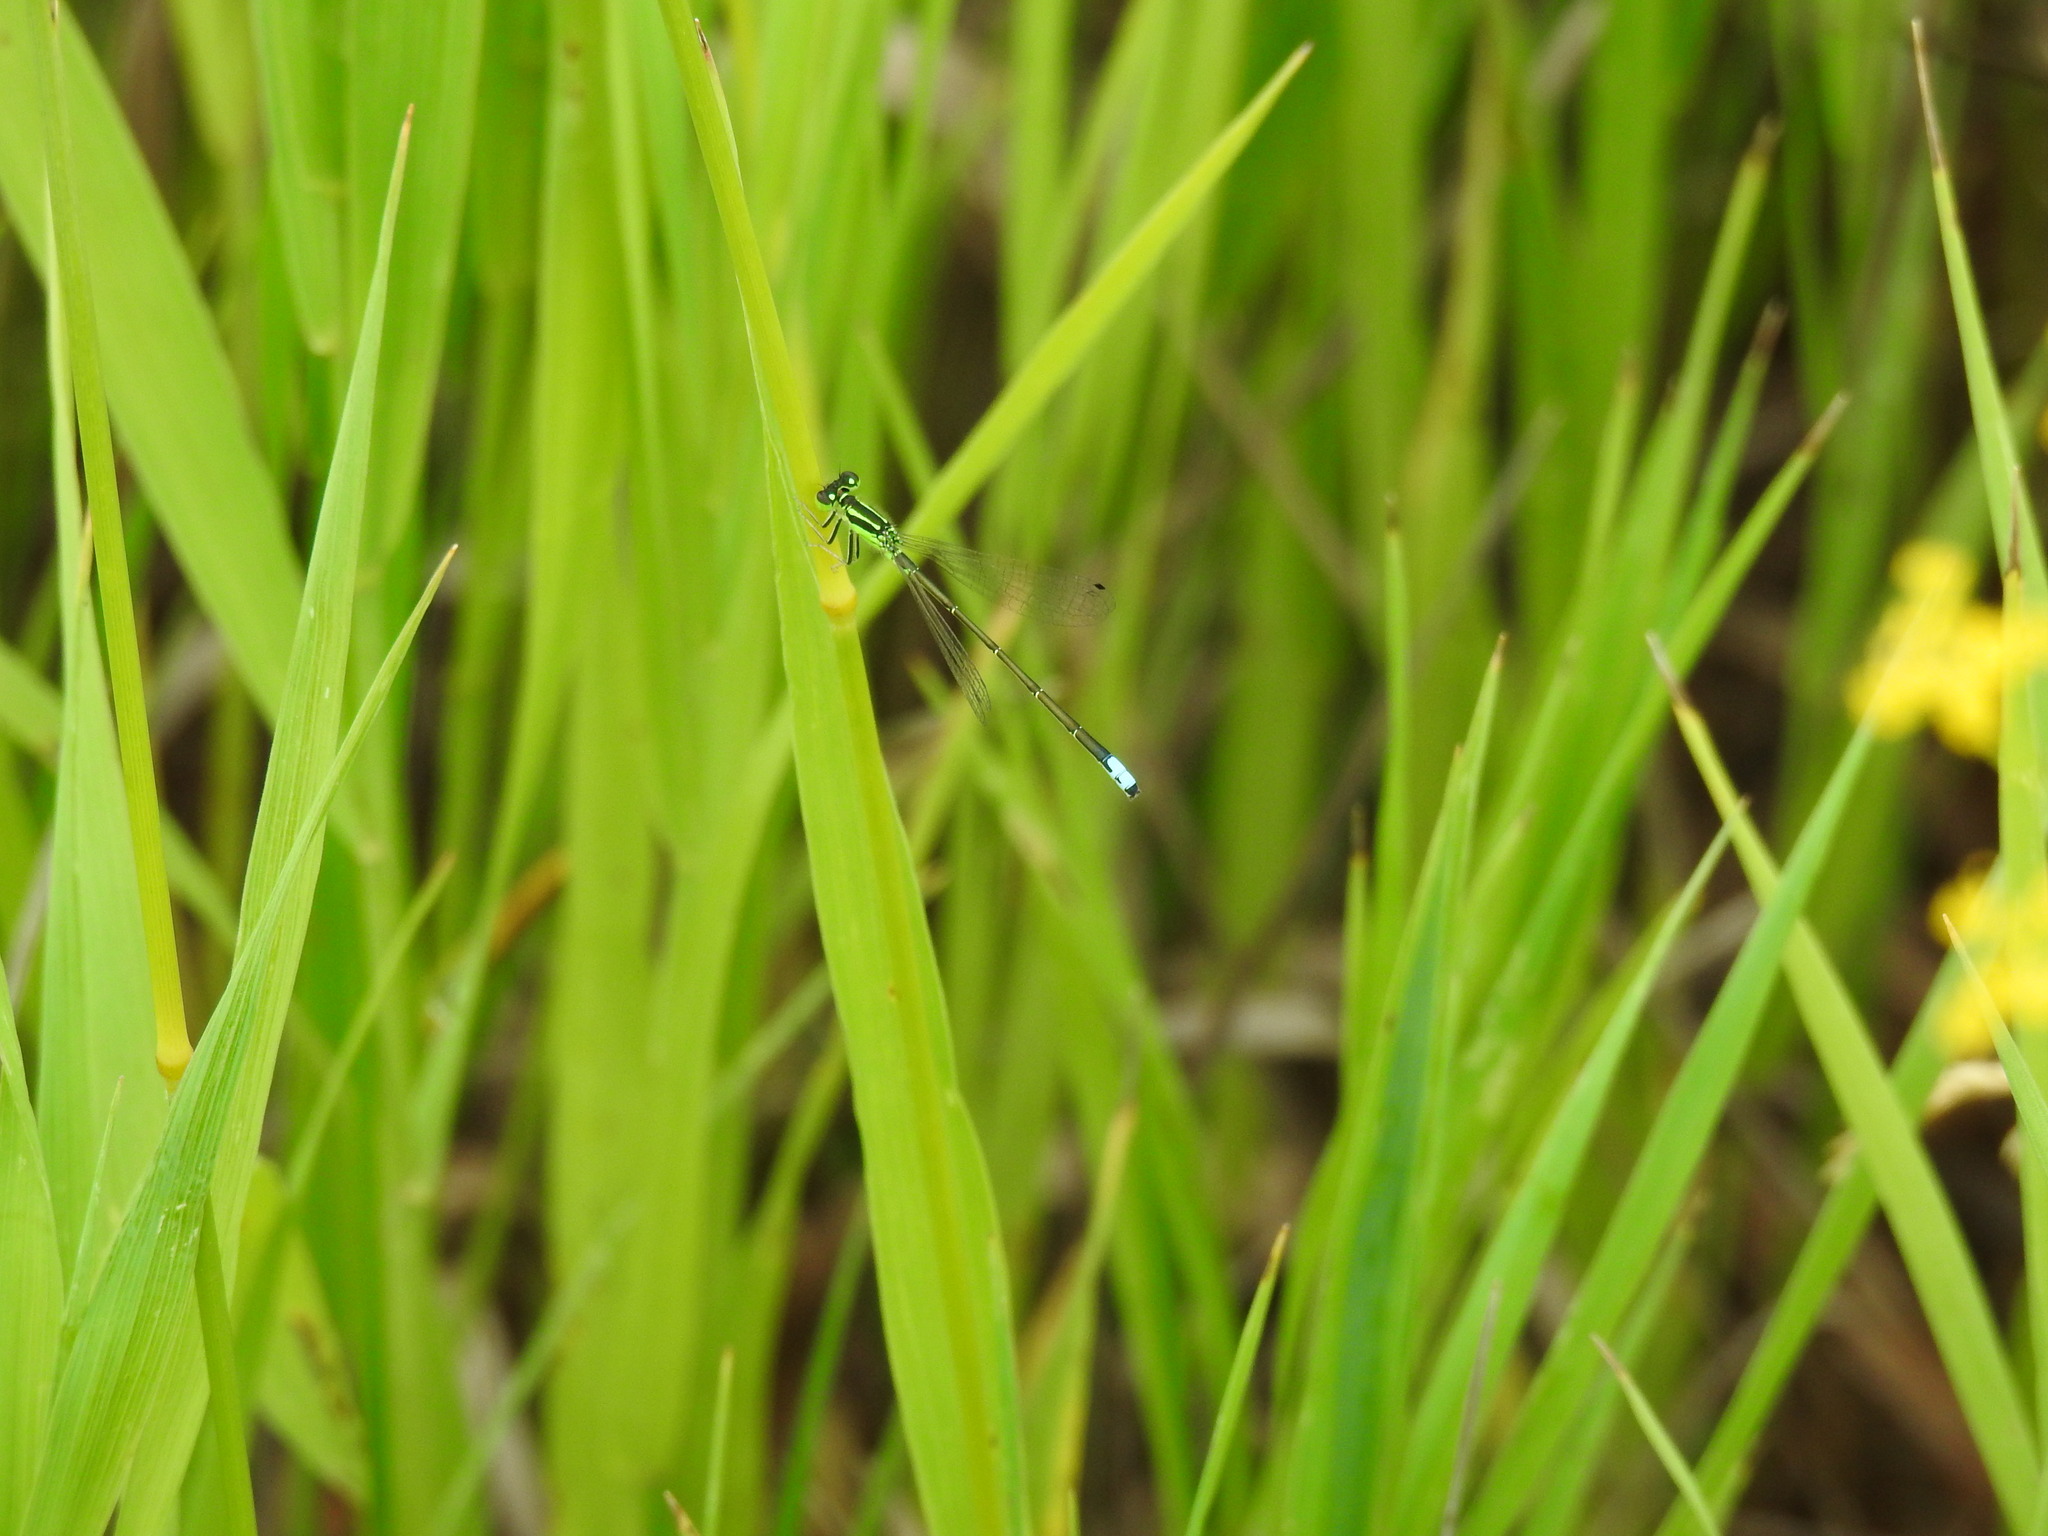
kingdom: Animalia
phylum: Arthropoda
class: Insecta
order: Odonata
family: Coenagrionidae
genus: Ischnura
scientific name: Ischnura verticalis
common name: Eastern forktail
